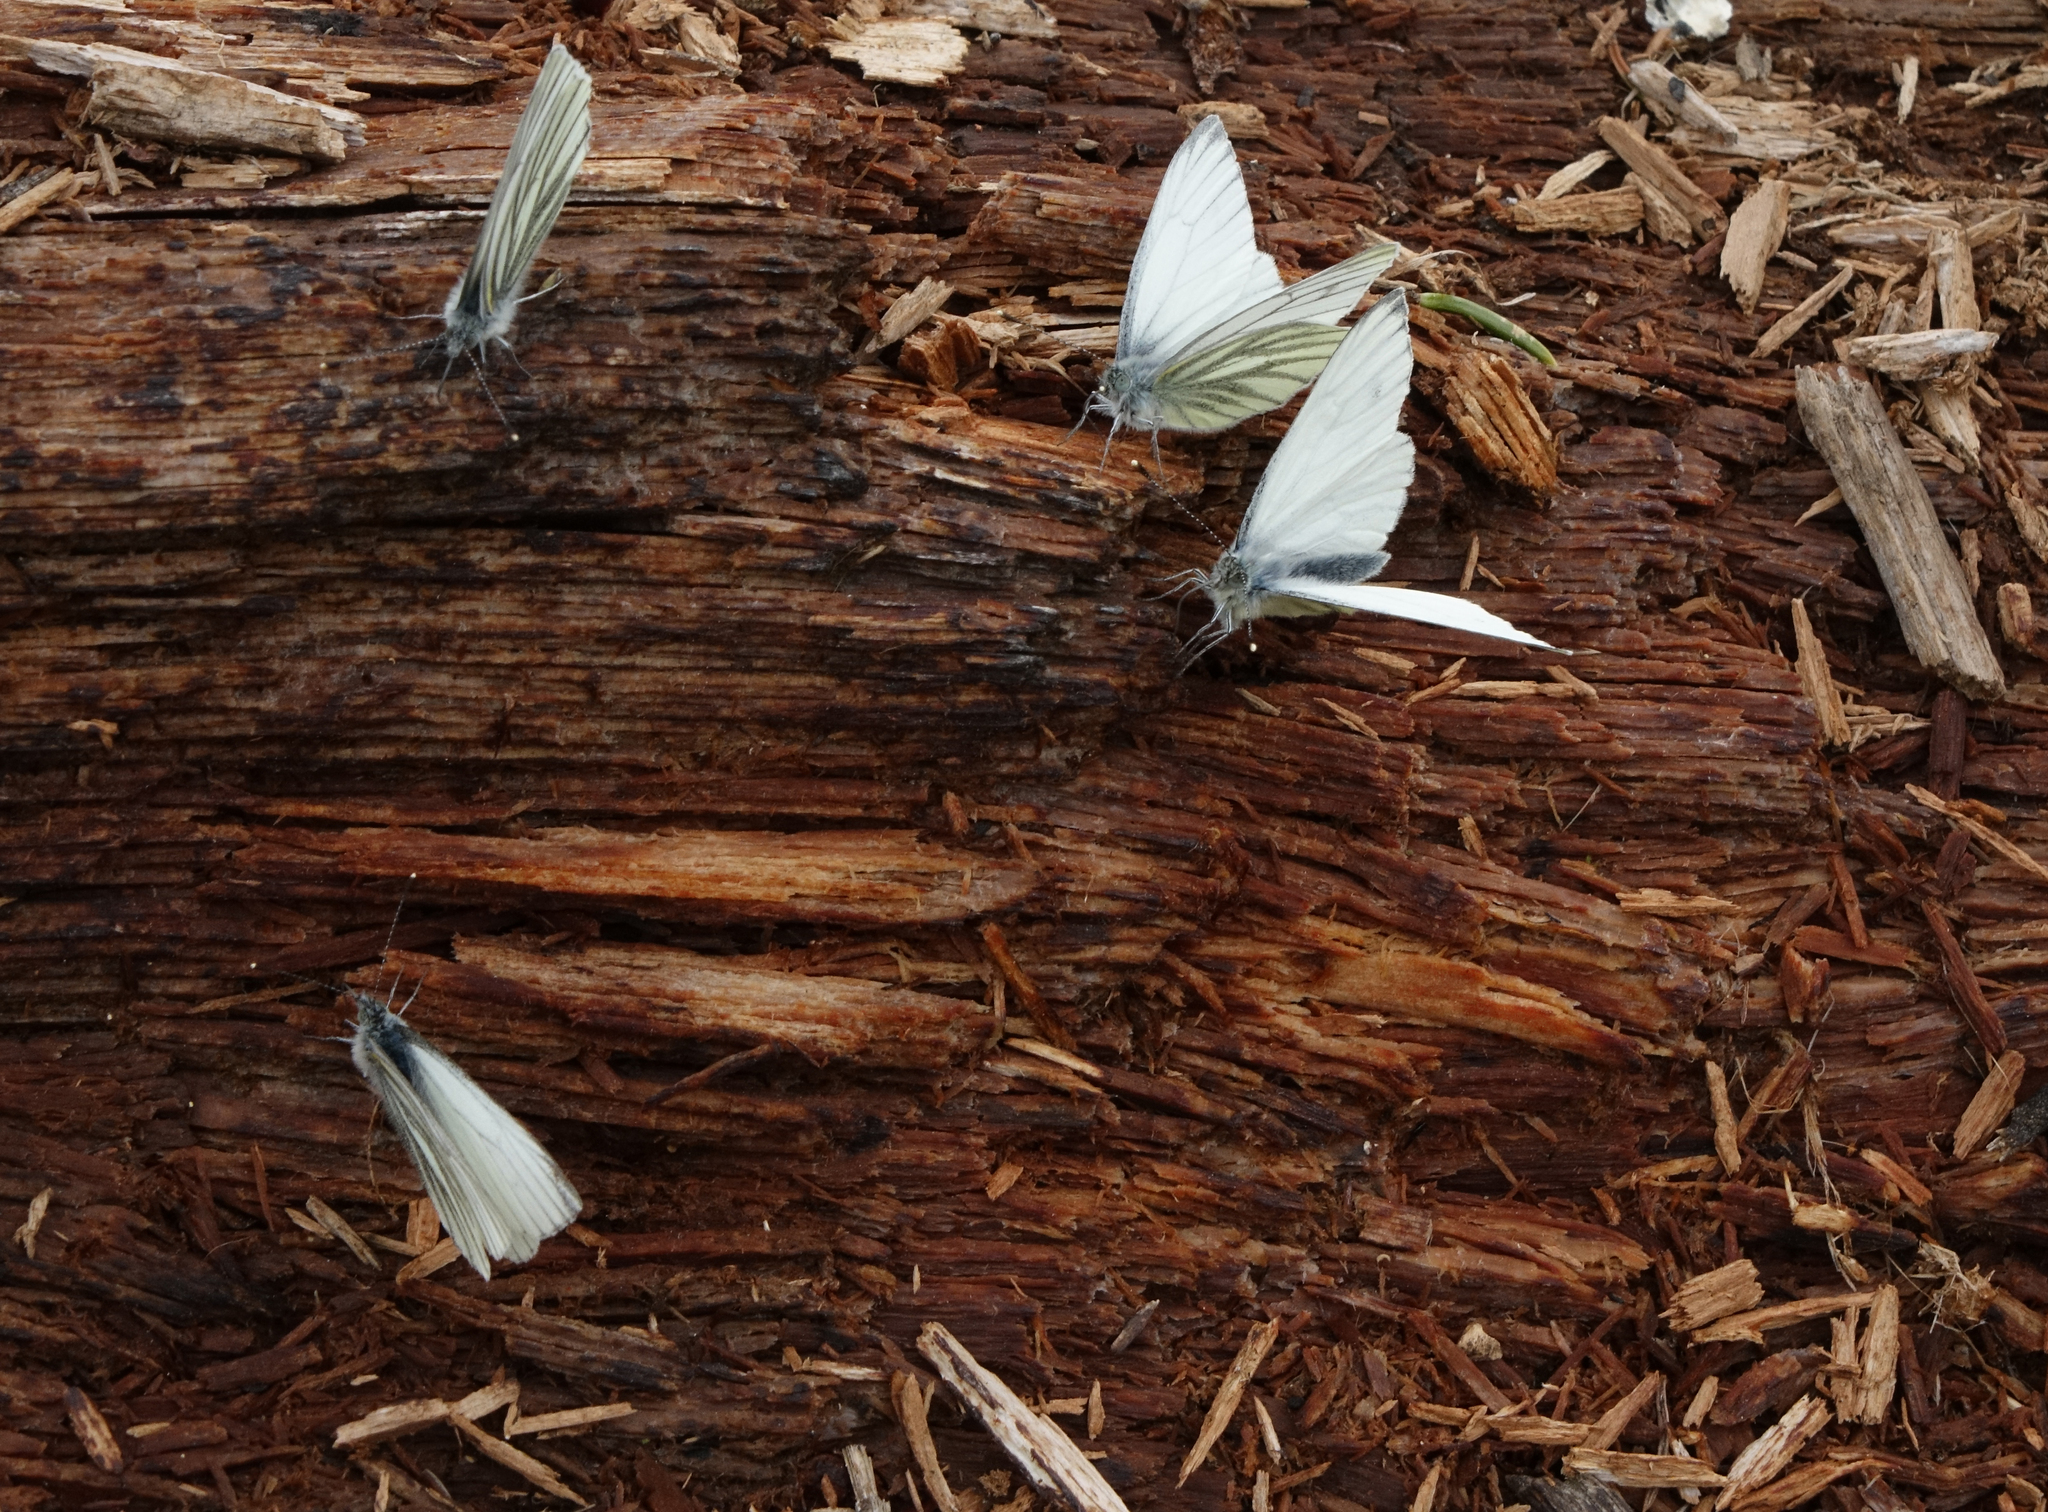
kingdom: Animalia
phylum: Arthropoda
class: Insecta
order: Lepidoptera
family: Pieridae
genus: Pieris
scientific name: Pieris napi
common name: Green-veined white
